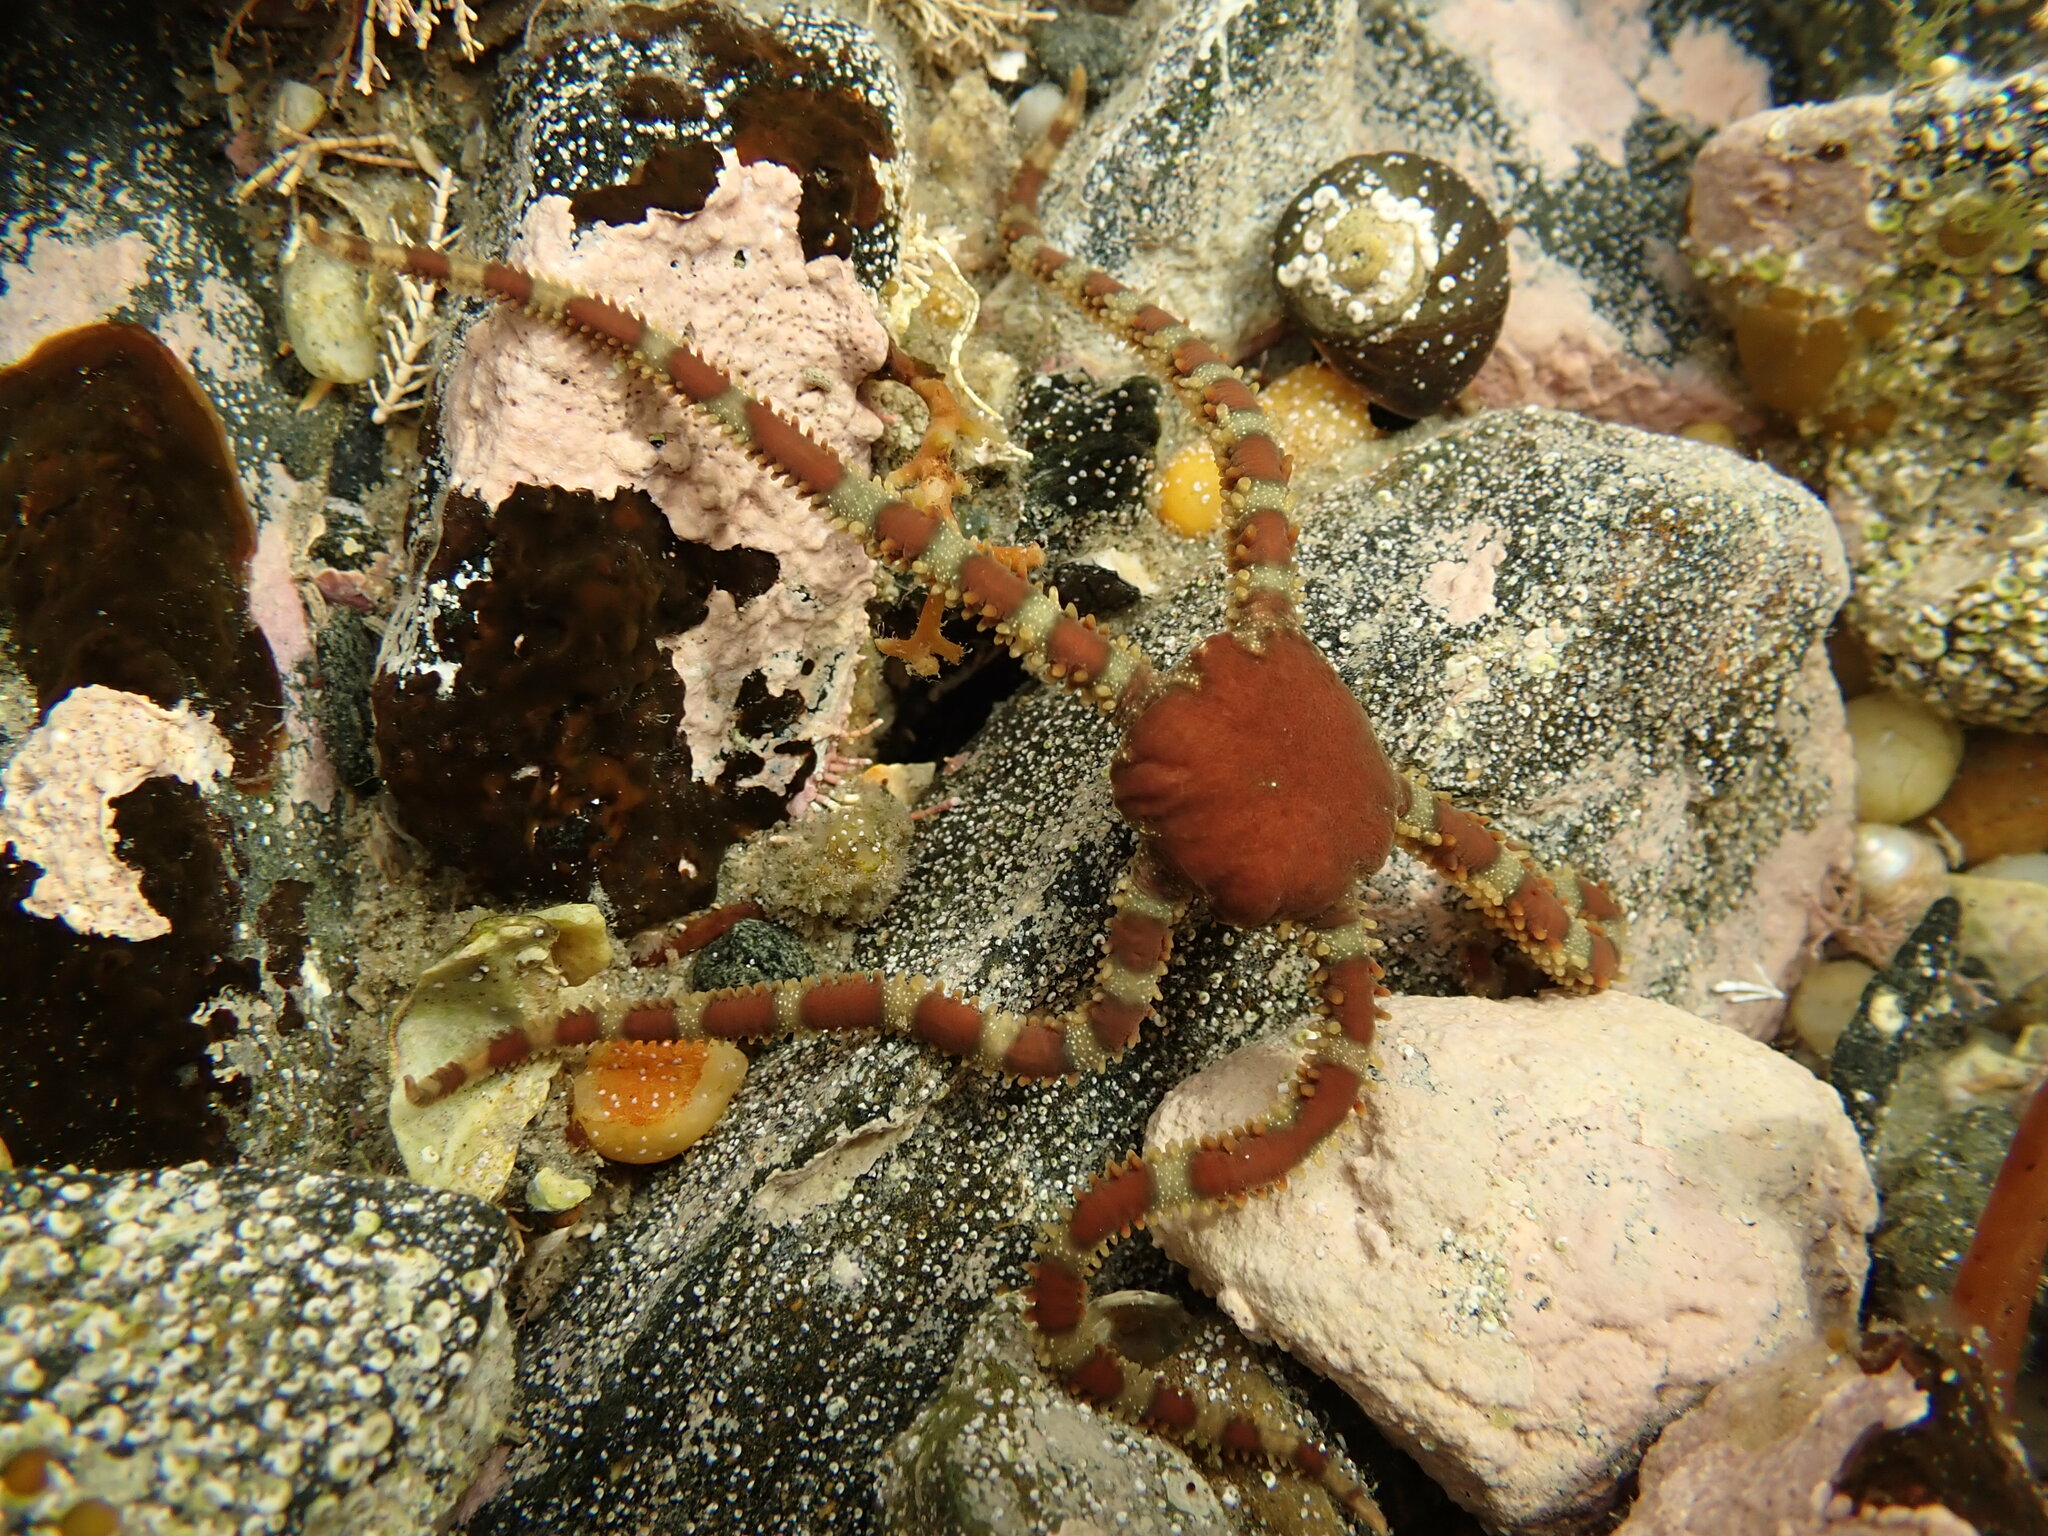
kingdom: Animalia
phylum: Echinodermata
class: Ophiuroidea
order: Ophiacanthida
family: Ophiomyxidae
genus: Ophiomyxa
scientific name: Ophiomyxa brevirima
